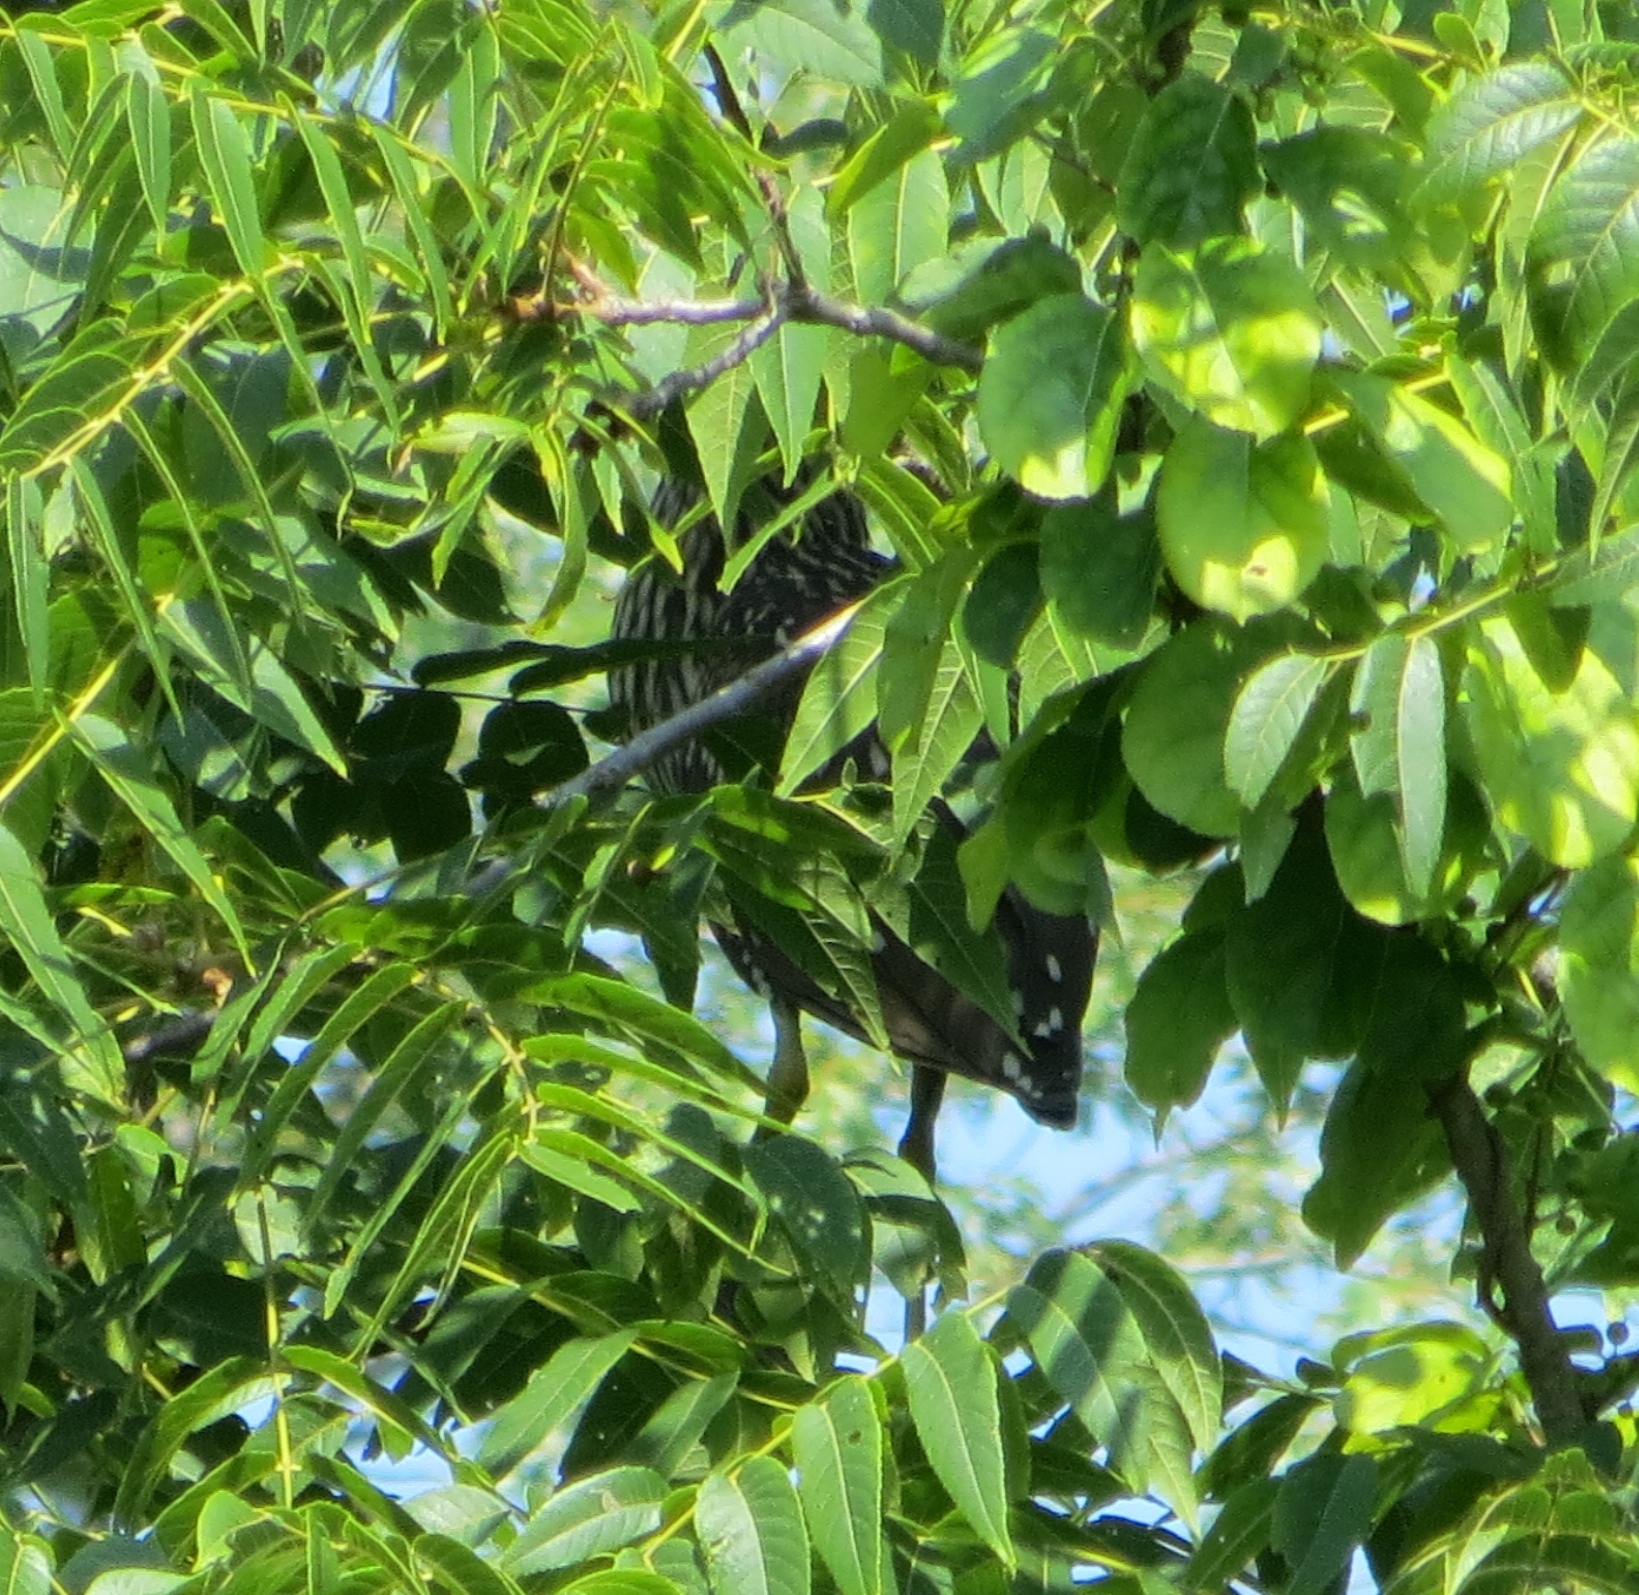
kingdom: Animalia
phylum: Chordata
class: Aves
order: Pelecaniformes
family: Ardeidae
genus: Nycticorax
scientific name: Nycticorax nycticorax
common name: Black-crowned night heron
